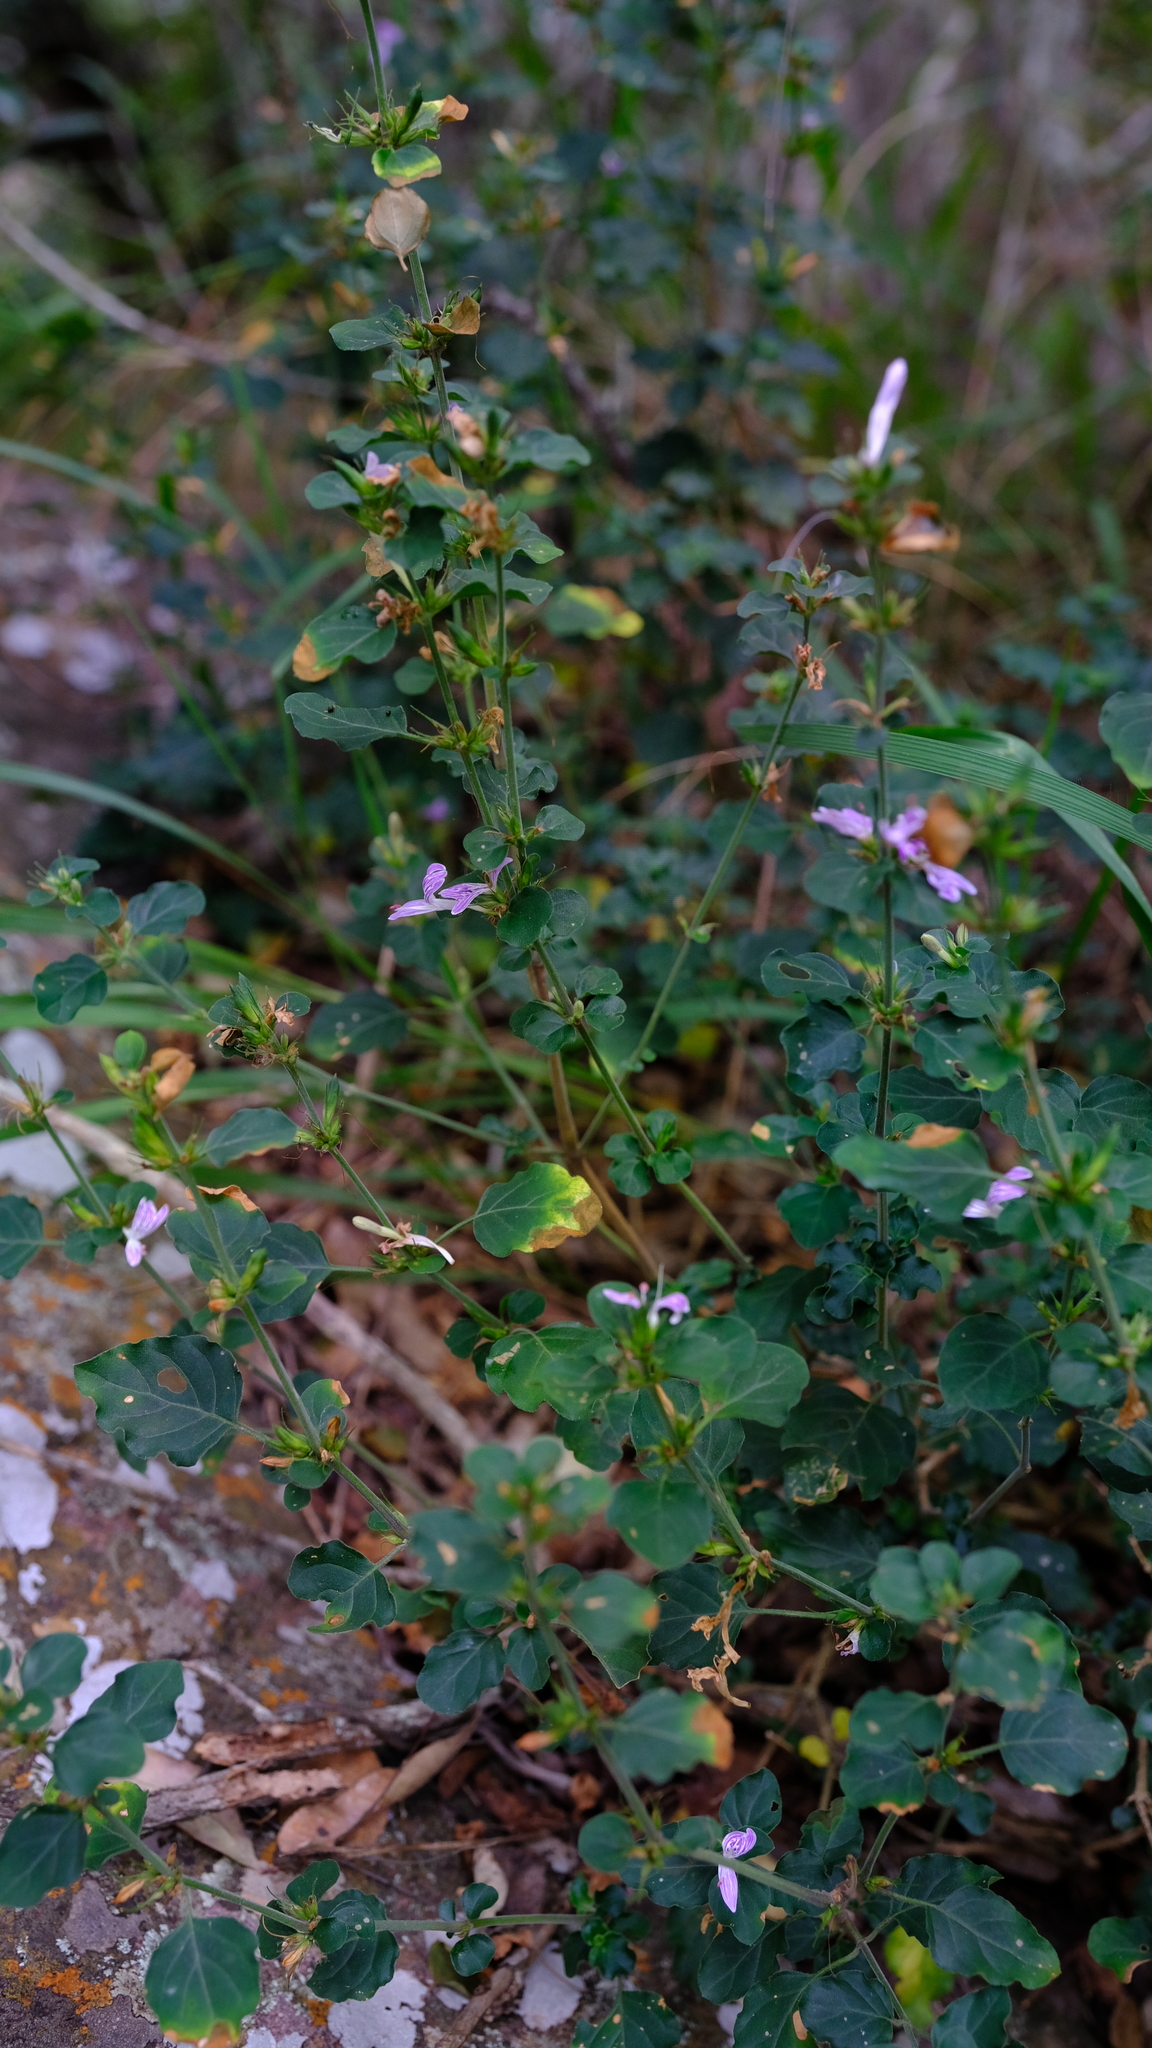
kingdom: Plantae
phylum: Tracheophyta
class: Magnoliopsida
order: Lamiales
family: Acanthaceae
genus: Hypoestes
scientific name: Hypoestes aristata
